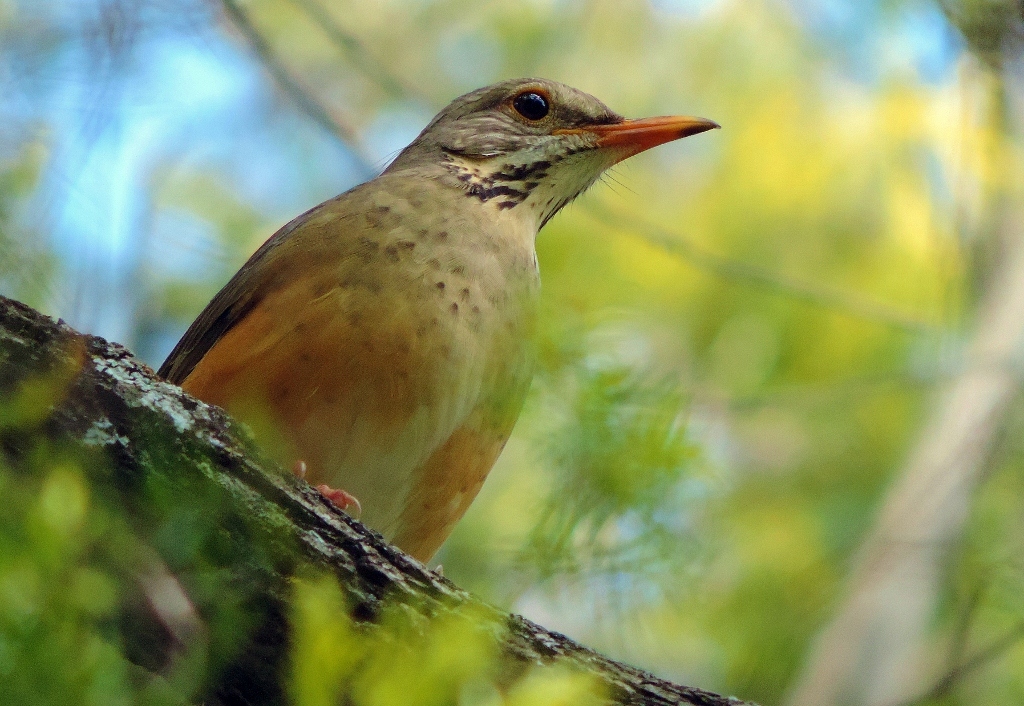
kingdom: Animalia
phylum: Chordata
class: Aves
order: Passeriformes
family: Turdidae
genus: Turdus
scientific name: Turdus libonyana
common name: Kurrichane thrush
